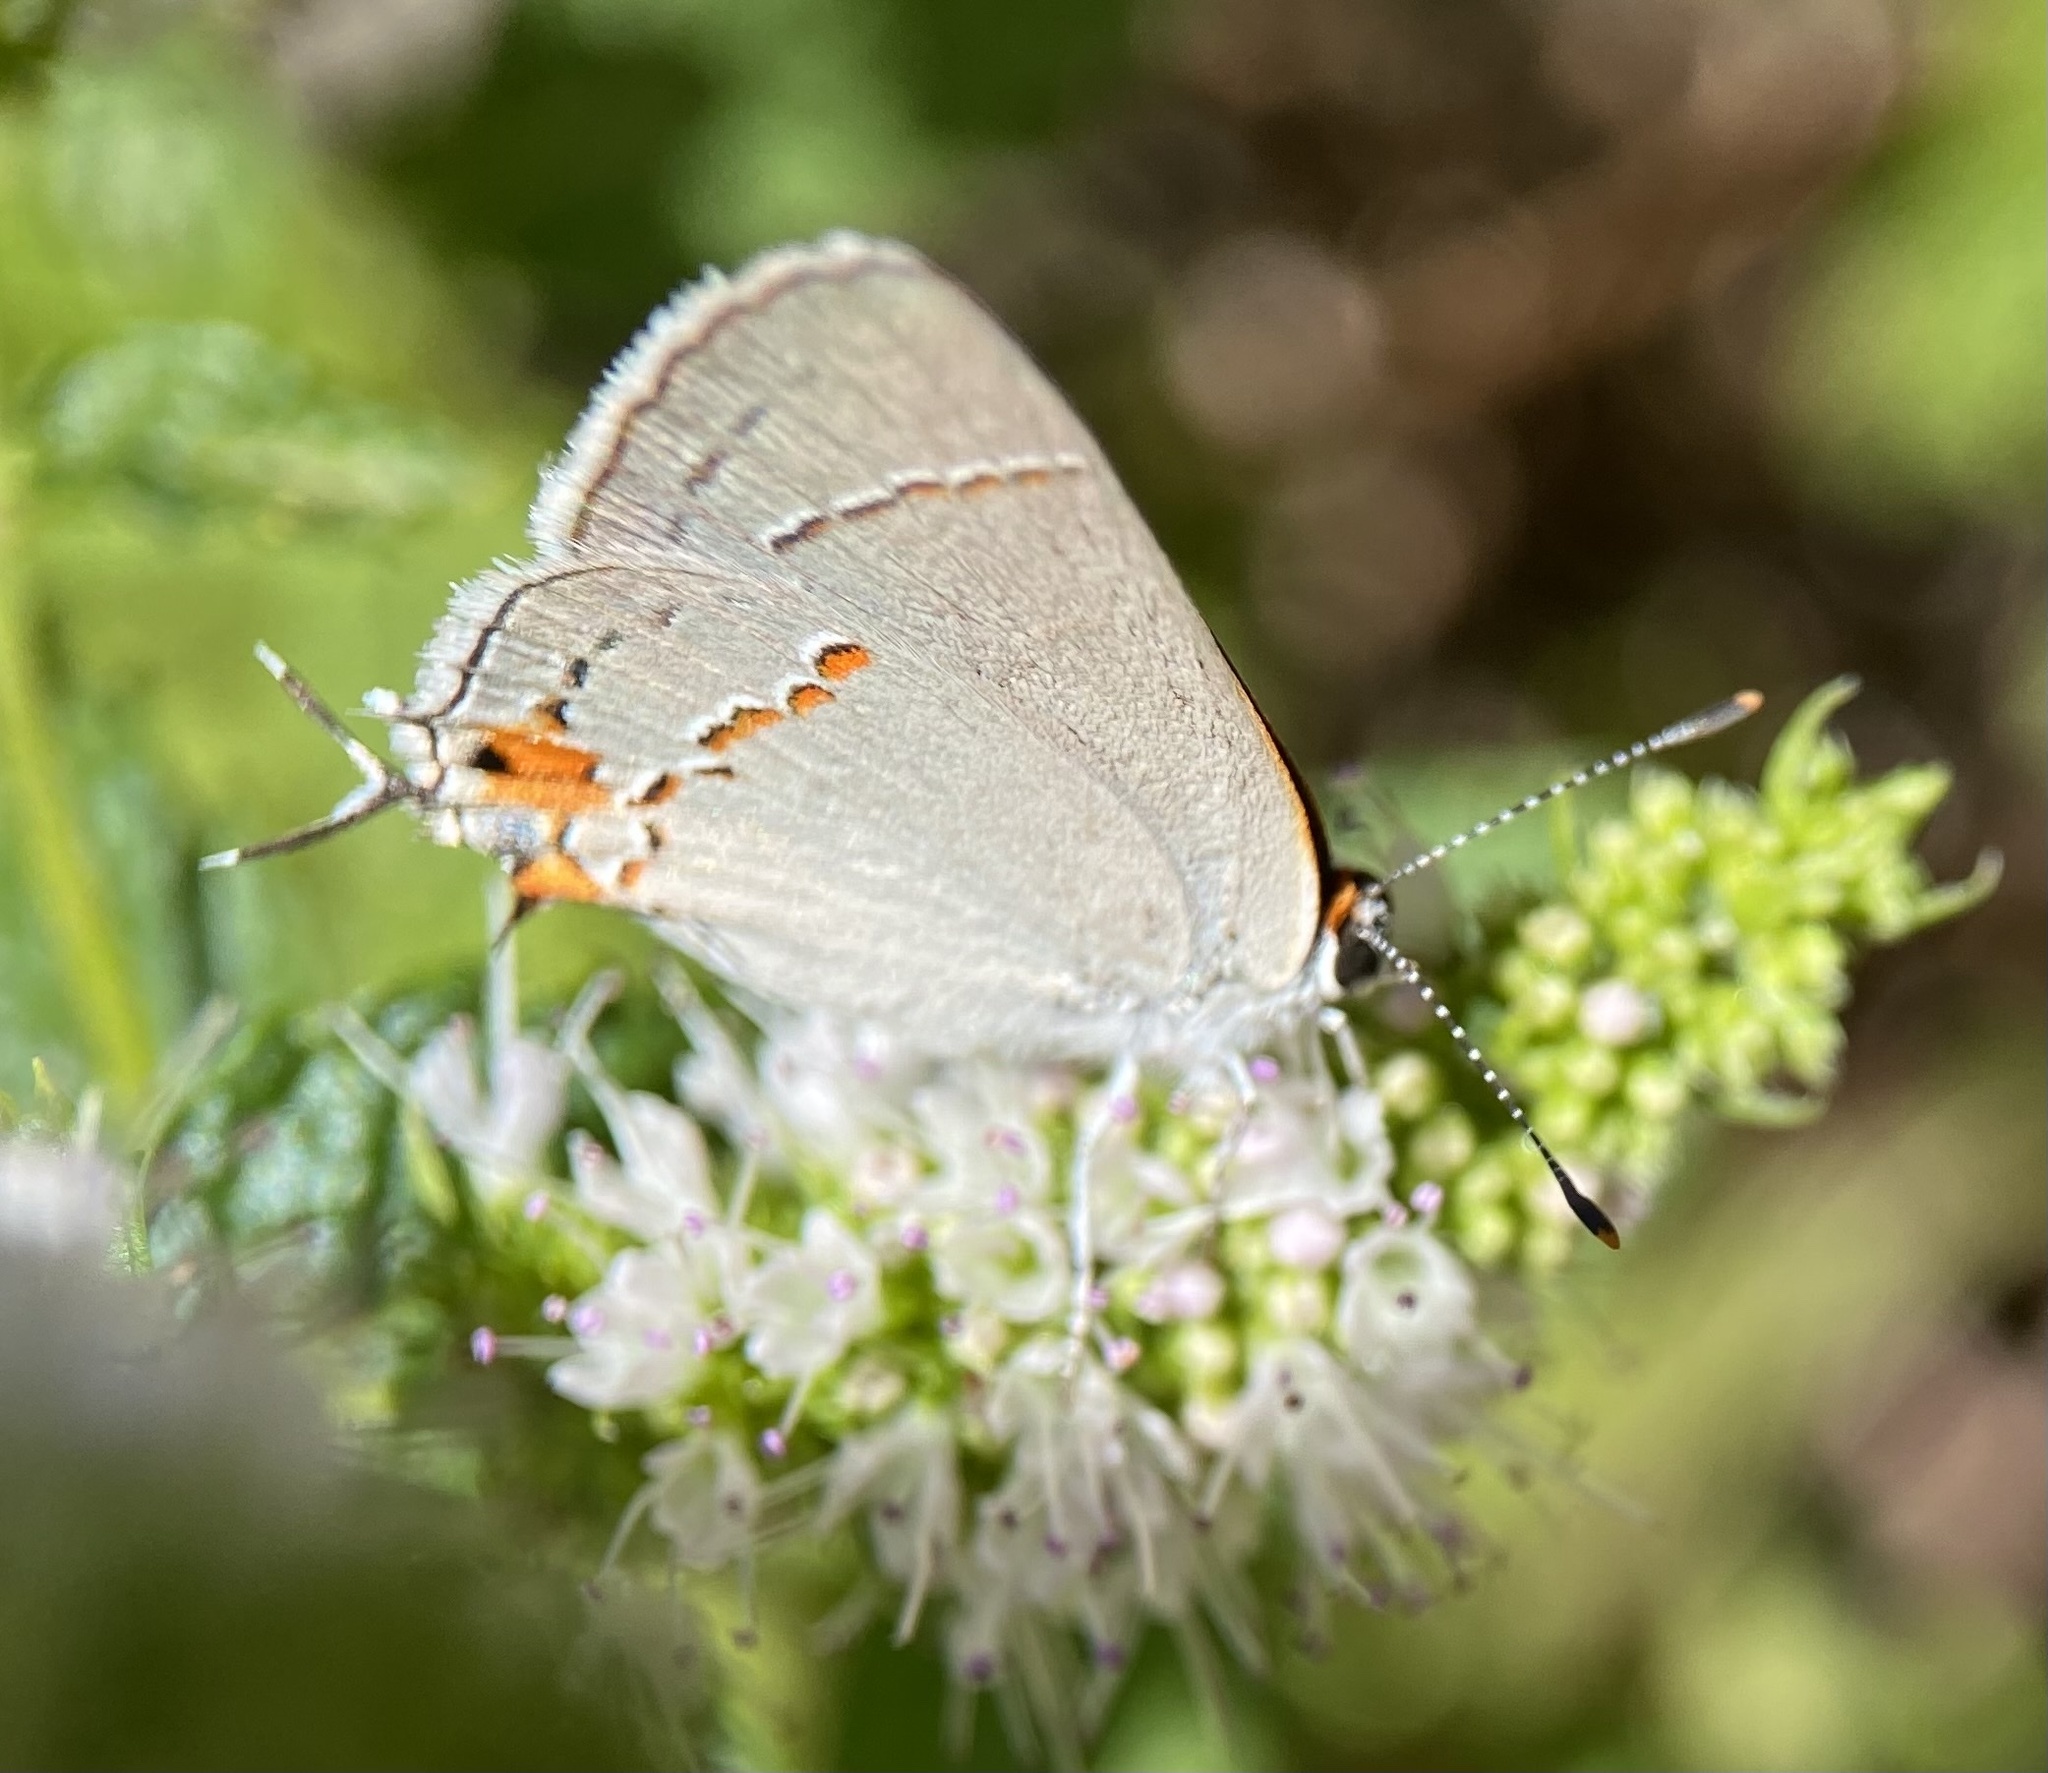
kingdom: Animalia
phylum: Arthropoda
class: Insecta
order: Lepidoptera
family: Lycaenidae
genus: Strymon
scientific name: Strymon melinus
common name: Gray hairstreak
